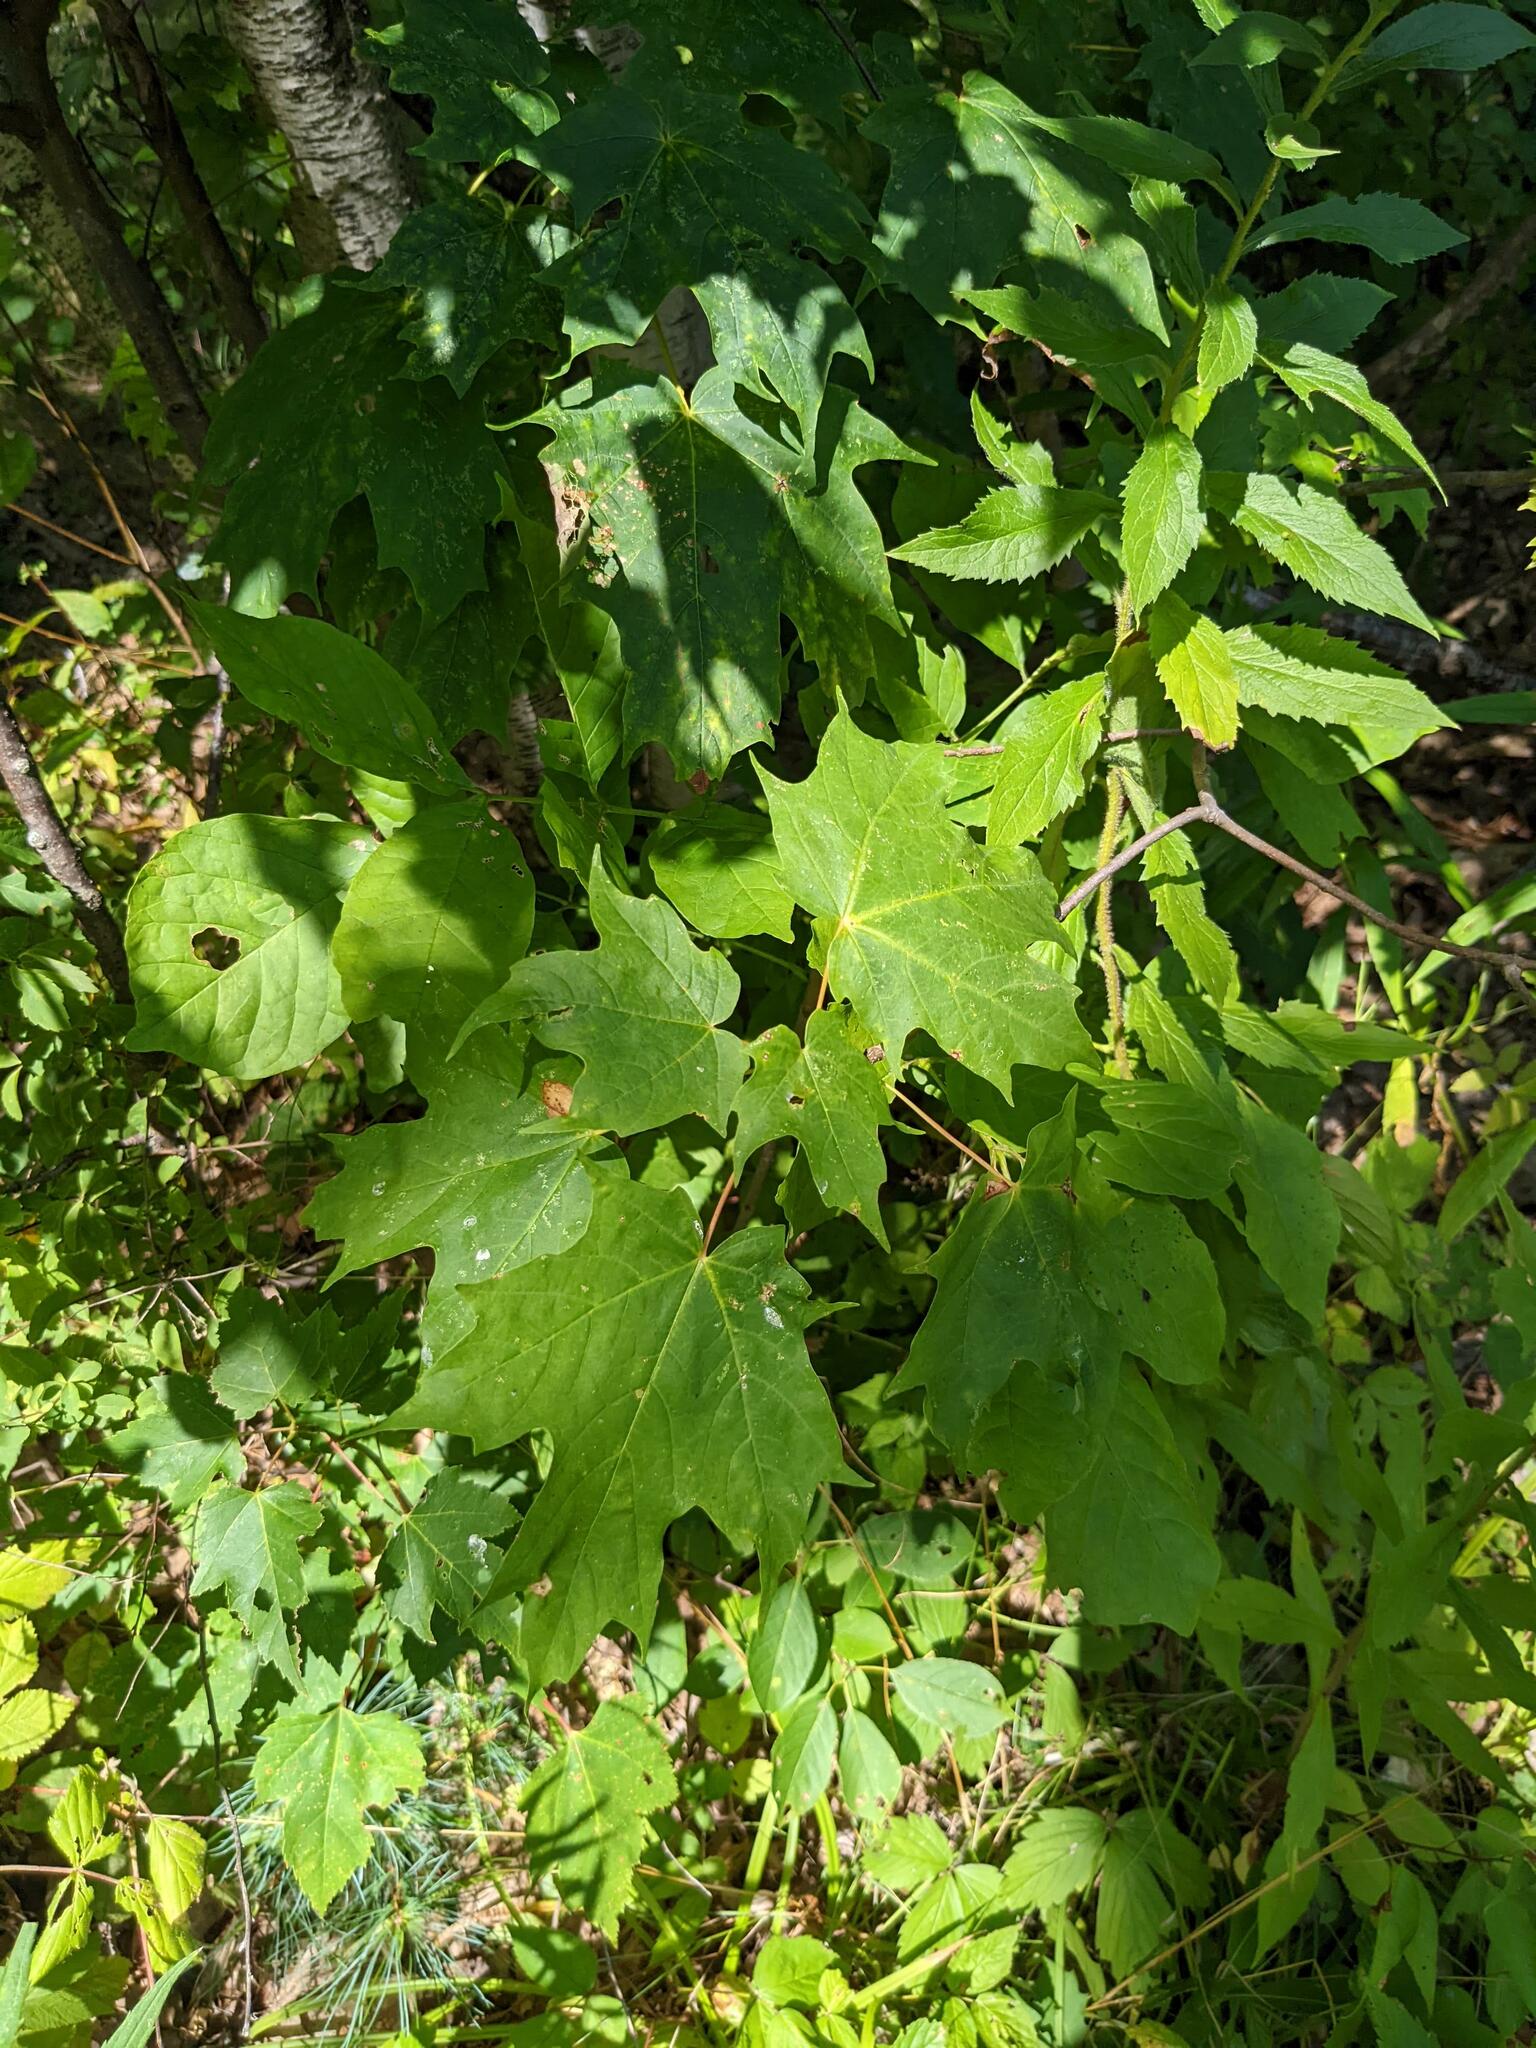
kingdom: Plantae
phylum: Tracheophyta
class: Magnoliopsida
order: Sapindales
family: Sapindaceae
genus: Acer
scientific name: Acer saccharum
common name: Sugar maple
